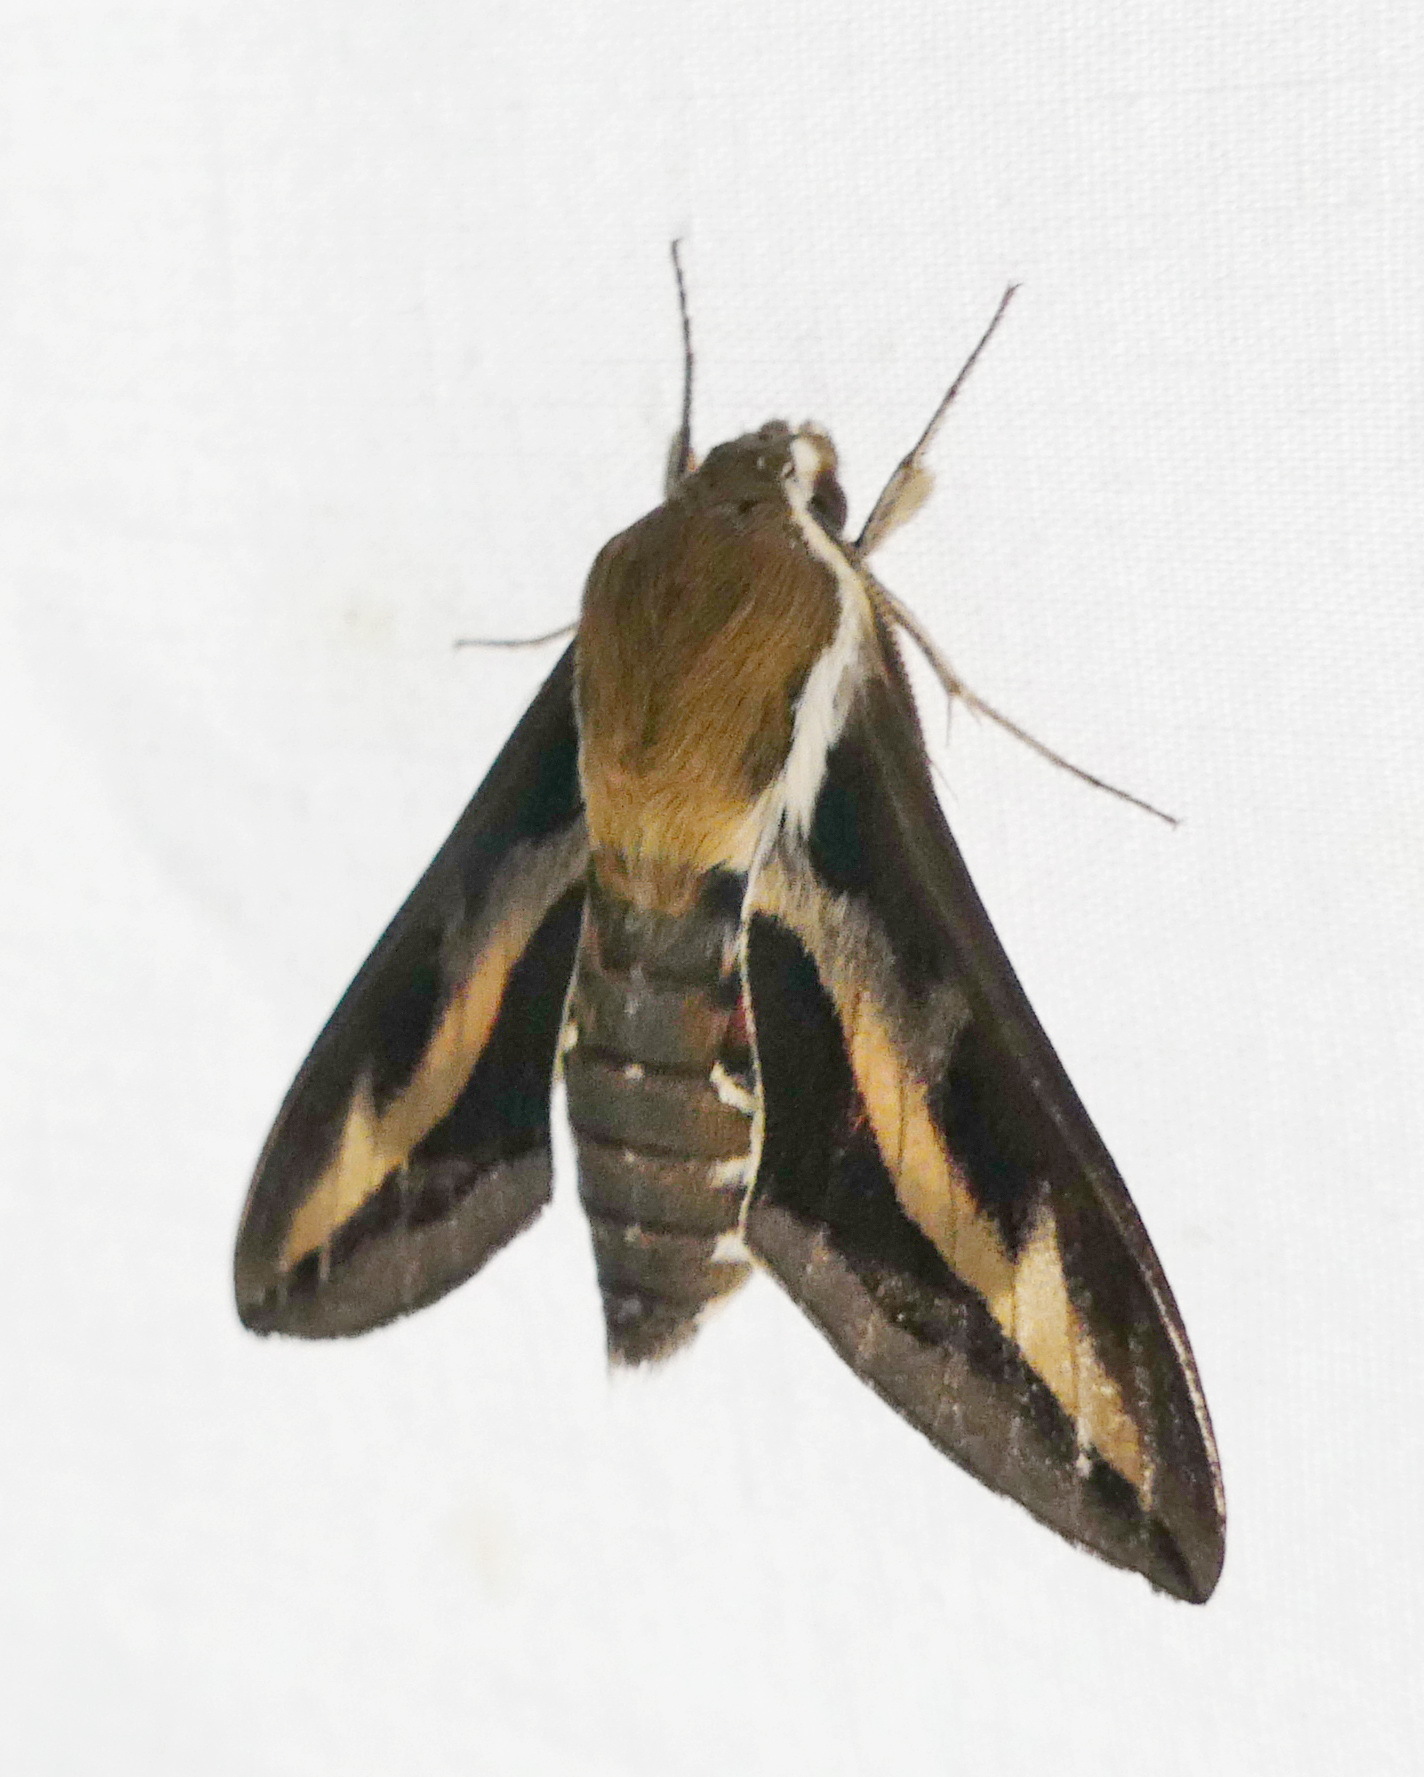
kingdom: Animalia
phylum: Arthropoda
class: Insecta
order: Lepidoptera
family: Sphingidae
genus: Hyles
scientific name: Hyles gallii
